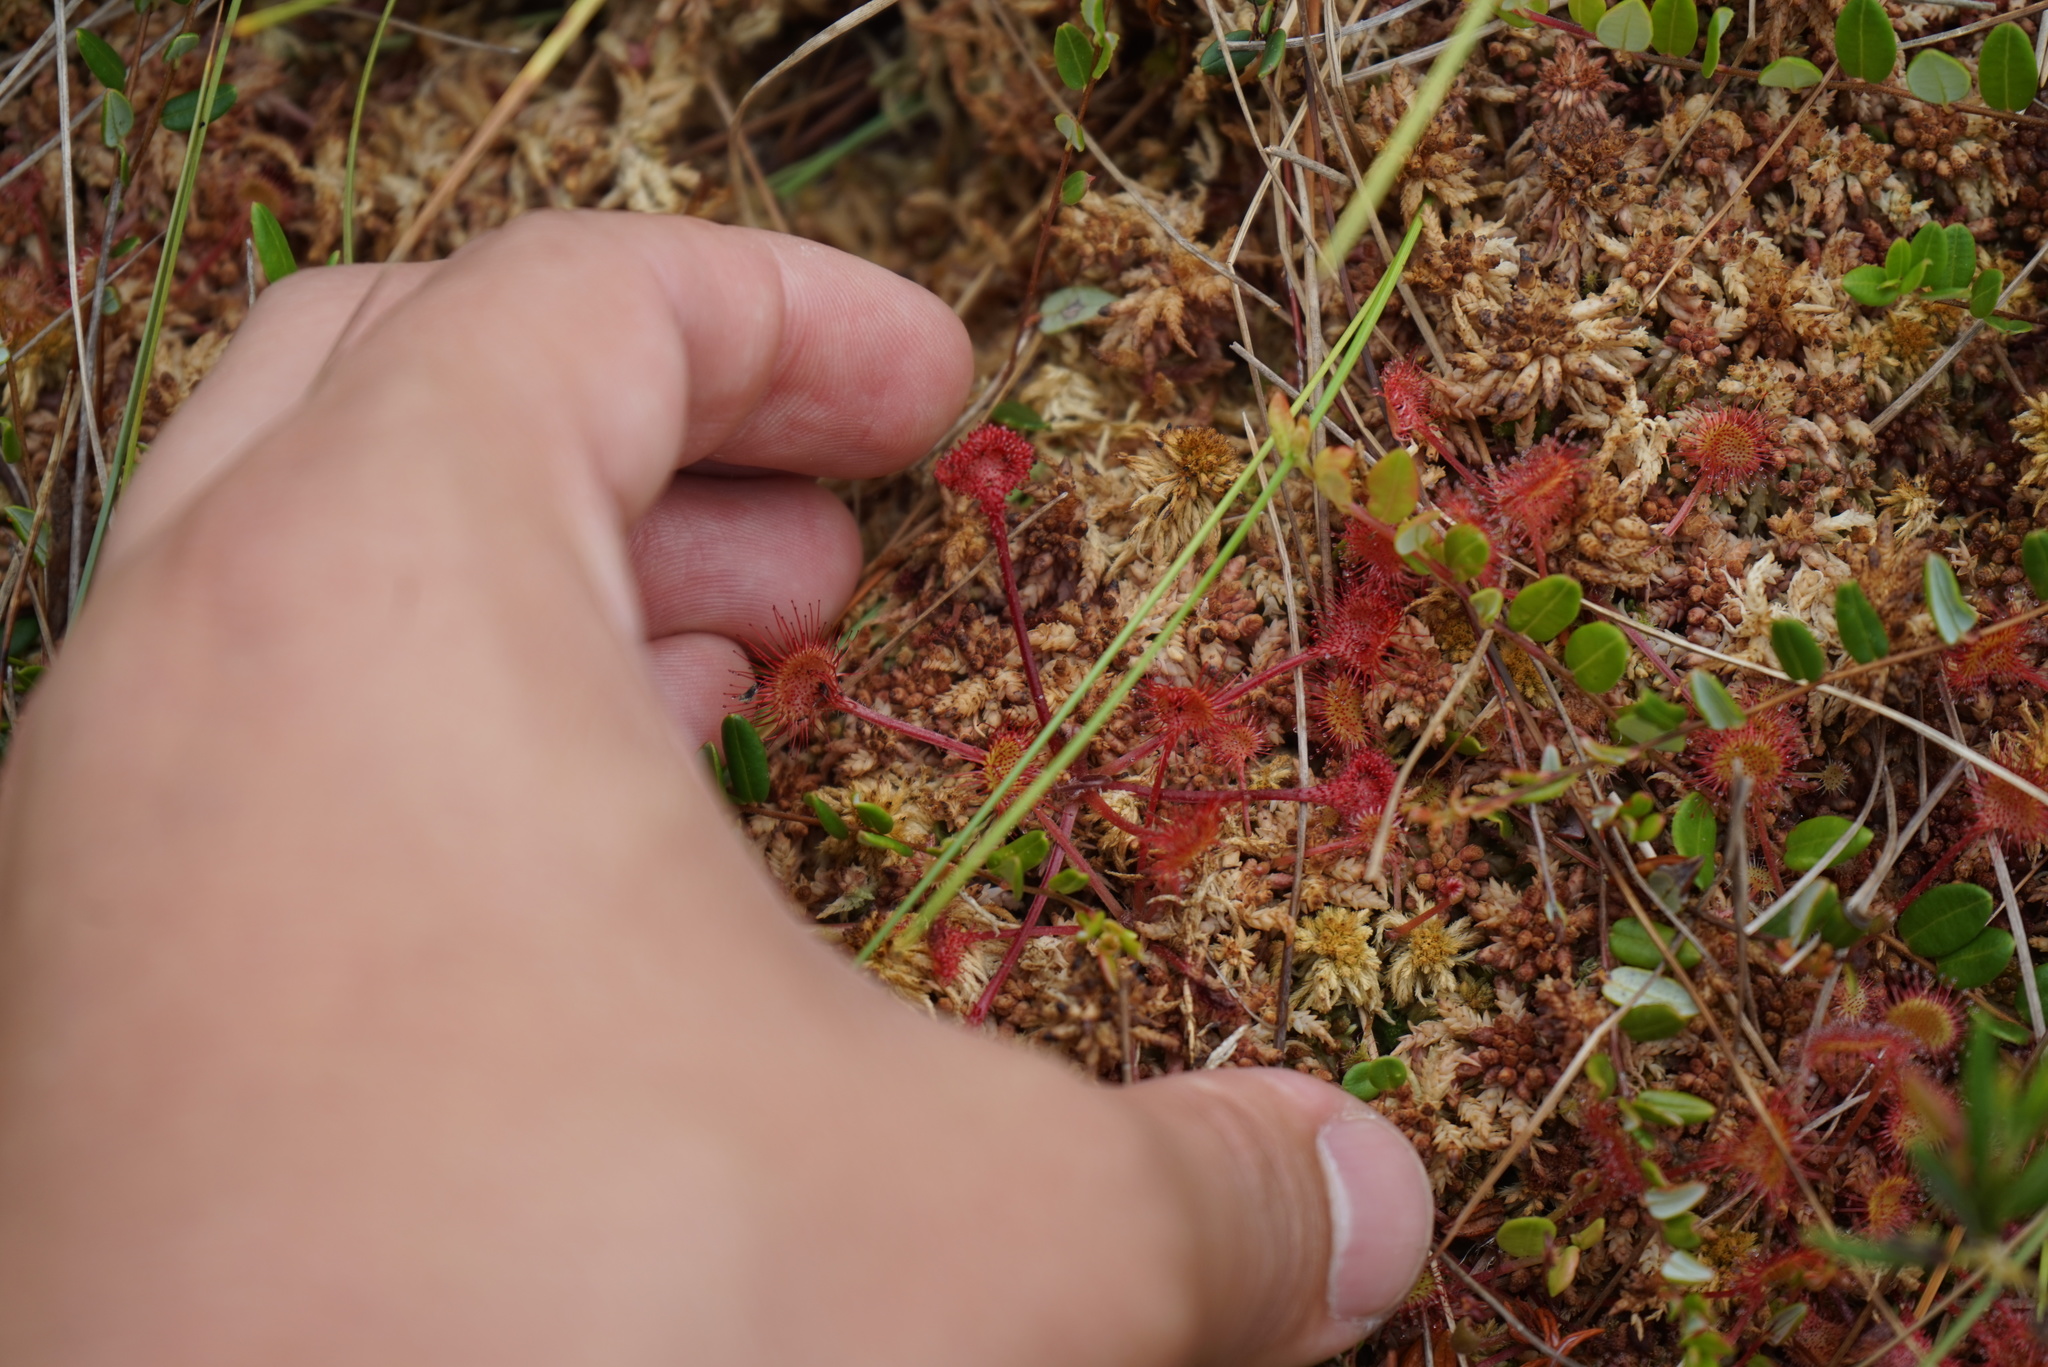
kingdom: Plantae
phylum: Tracheophyta
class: Magnoliopsida
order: Caryophyllales
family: Droseraceae
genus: Drosera
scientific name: Drosera rotundifolia
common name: Round-leaved sundew
